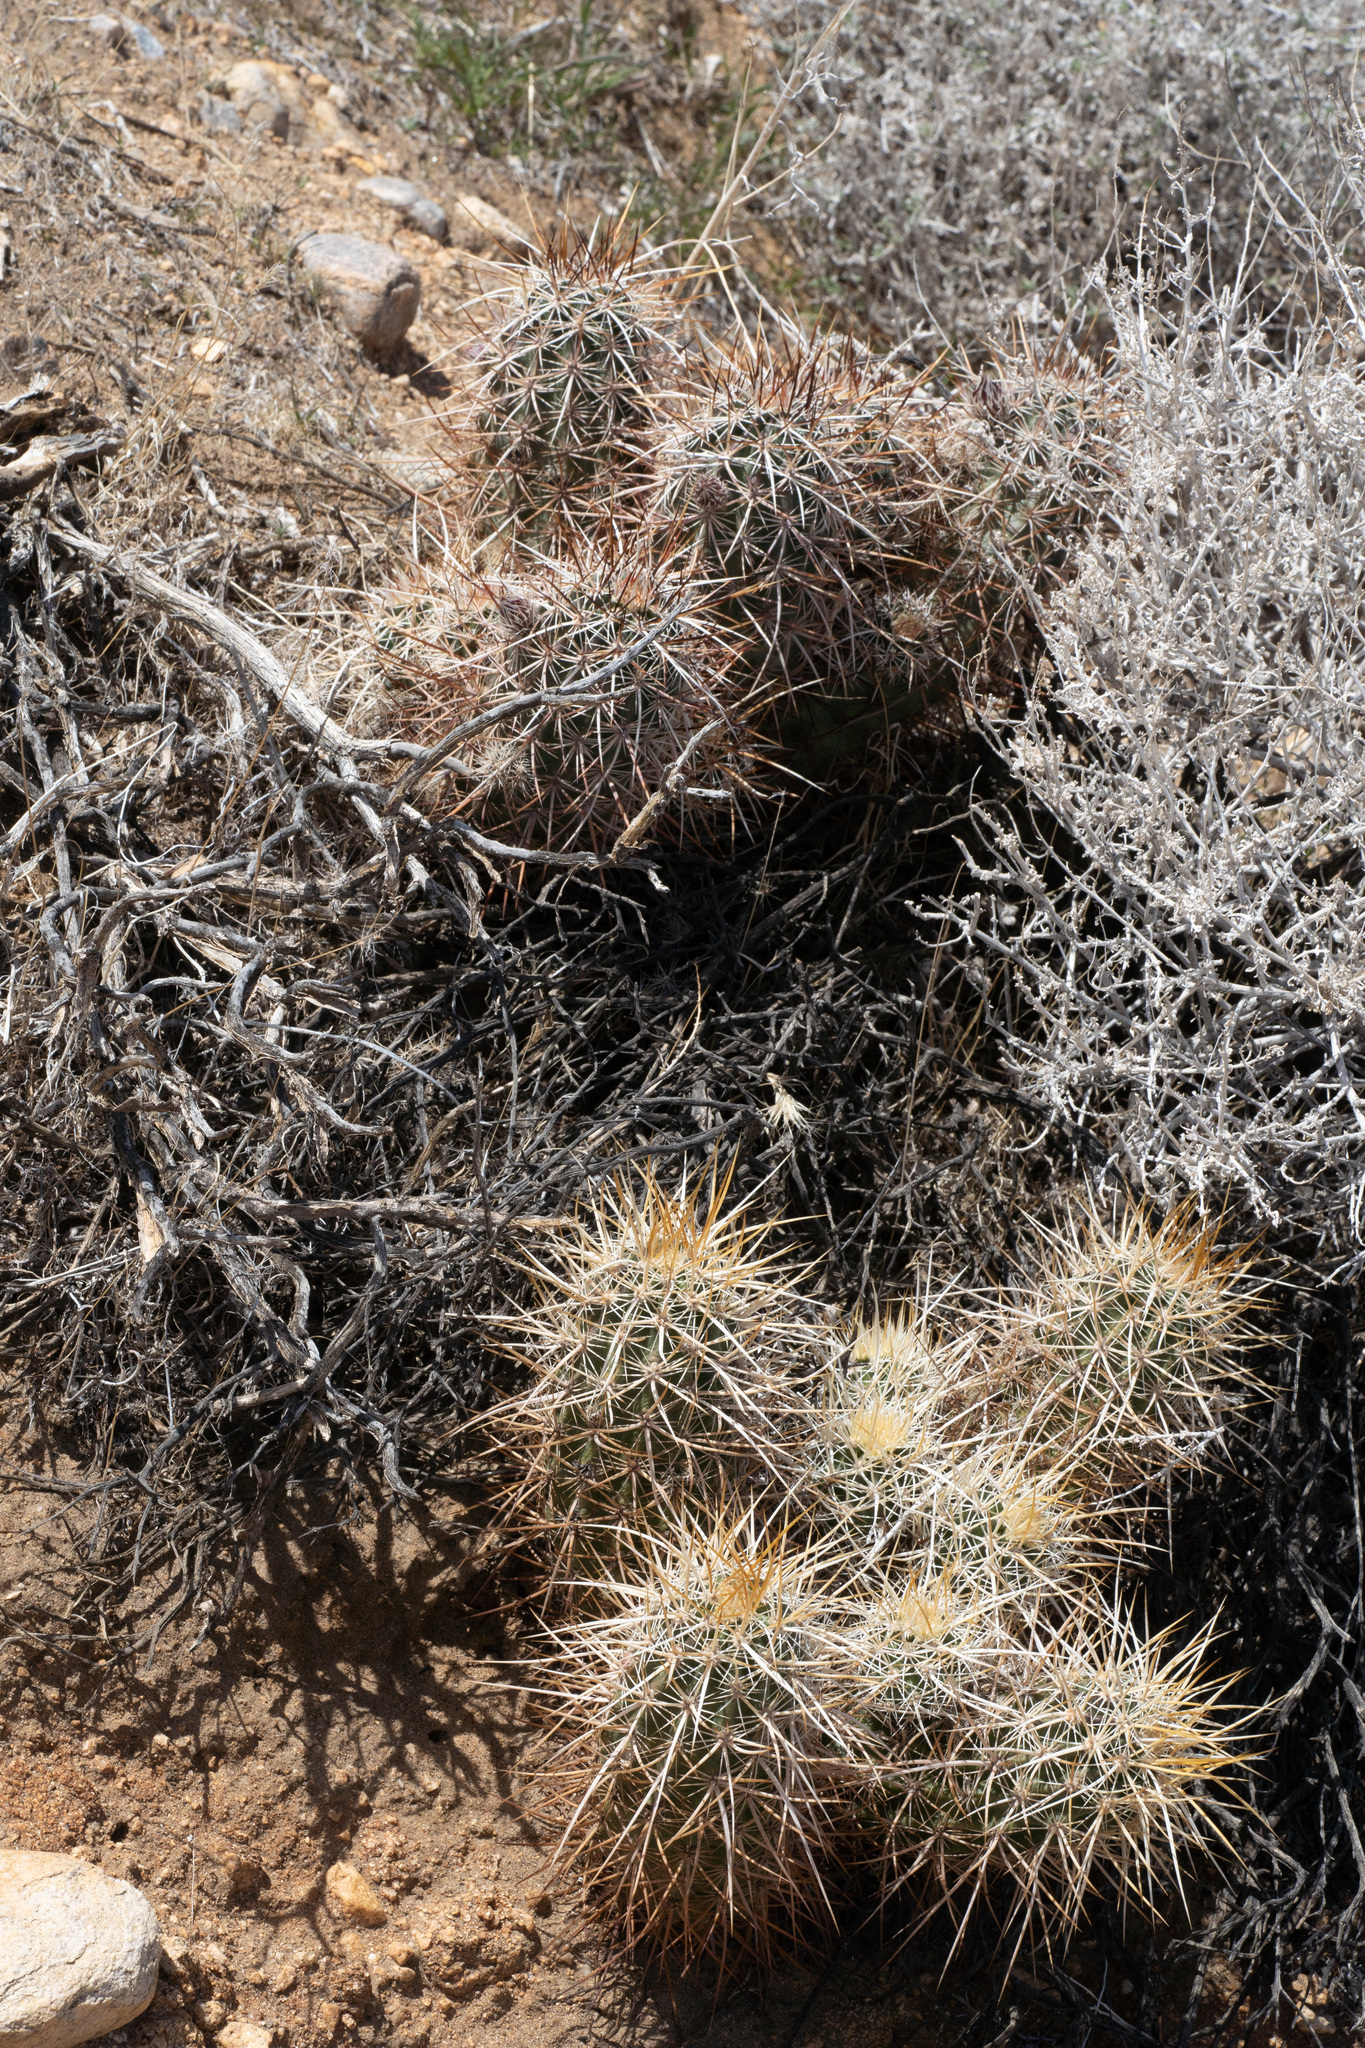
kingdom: Plantae
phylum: Tracheophyta
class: Magnoliopsida
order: Caryophyllales
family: Cactaceae
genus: Echinocereus
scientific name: Echinocereus engelmannii
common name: Engelmann's hedgehog cactus
